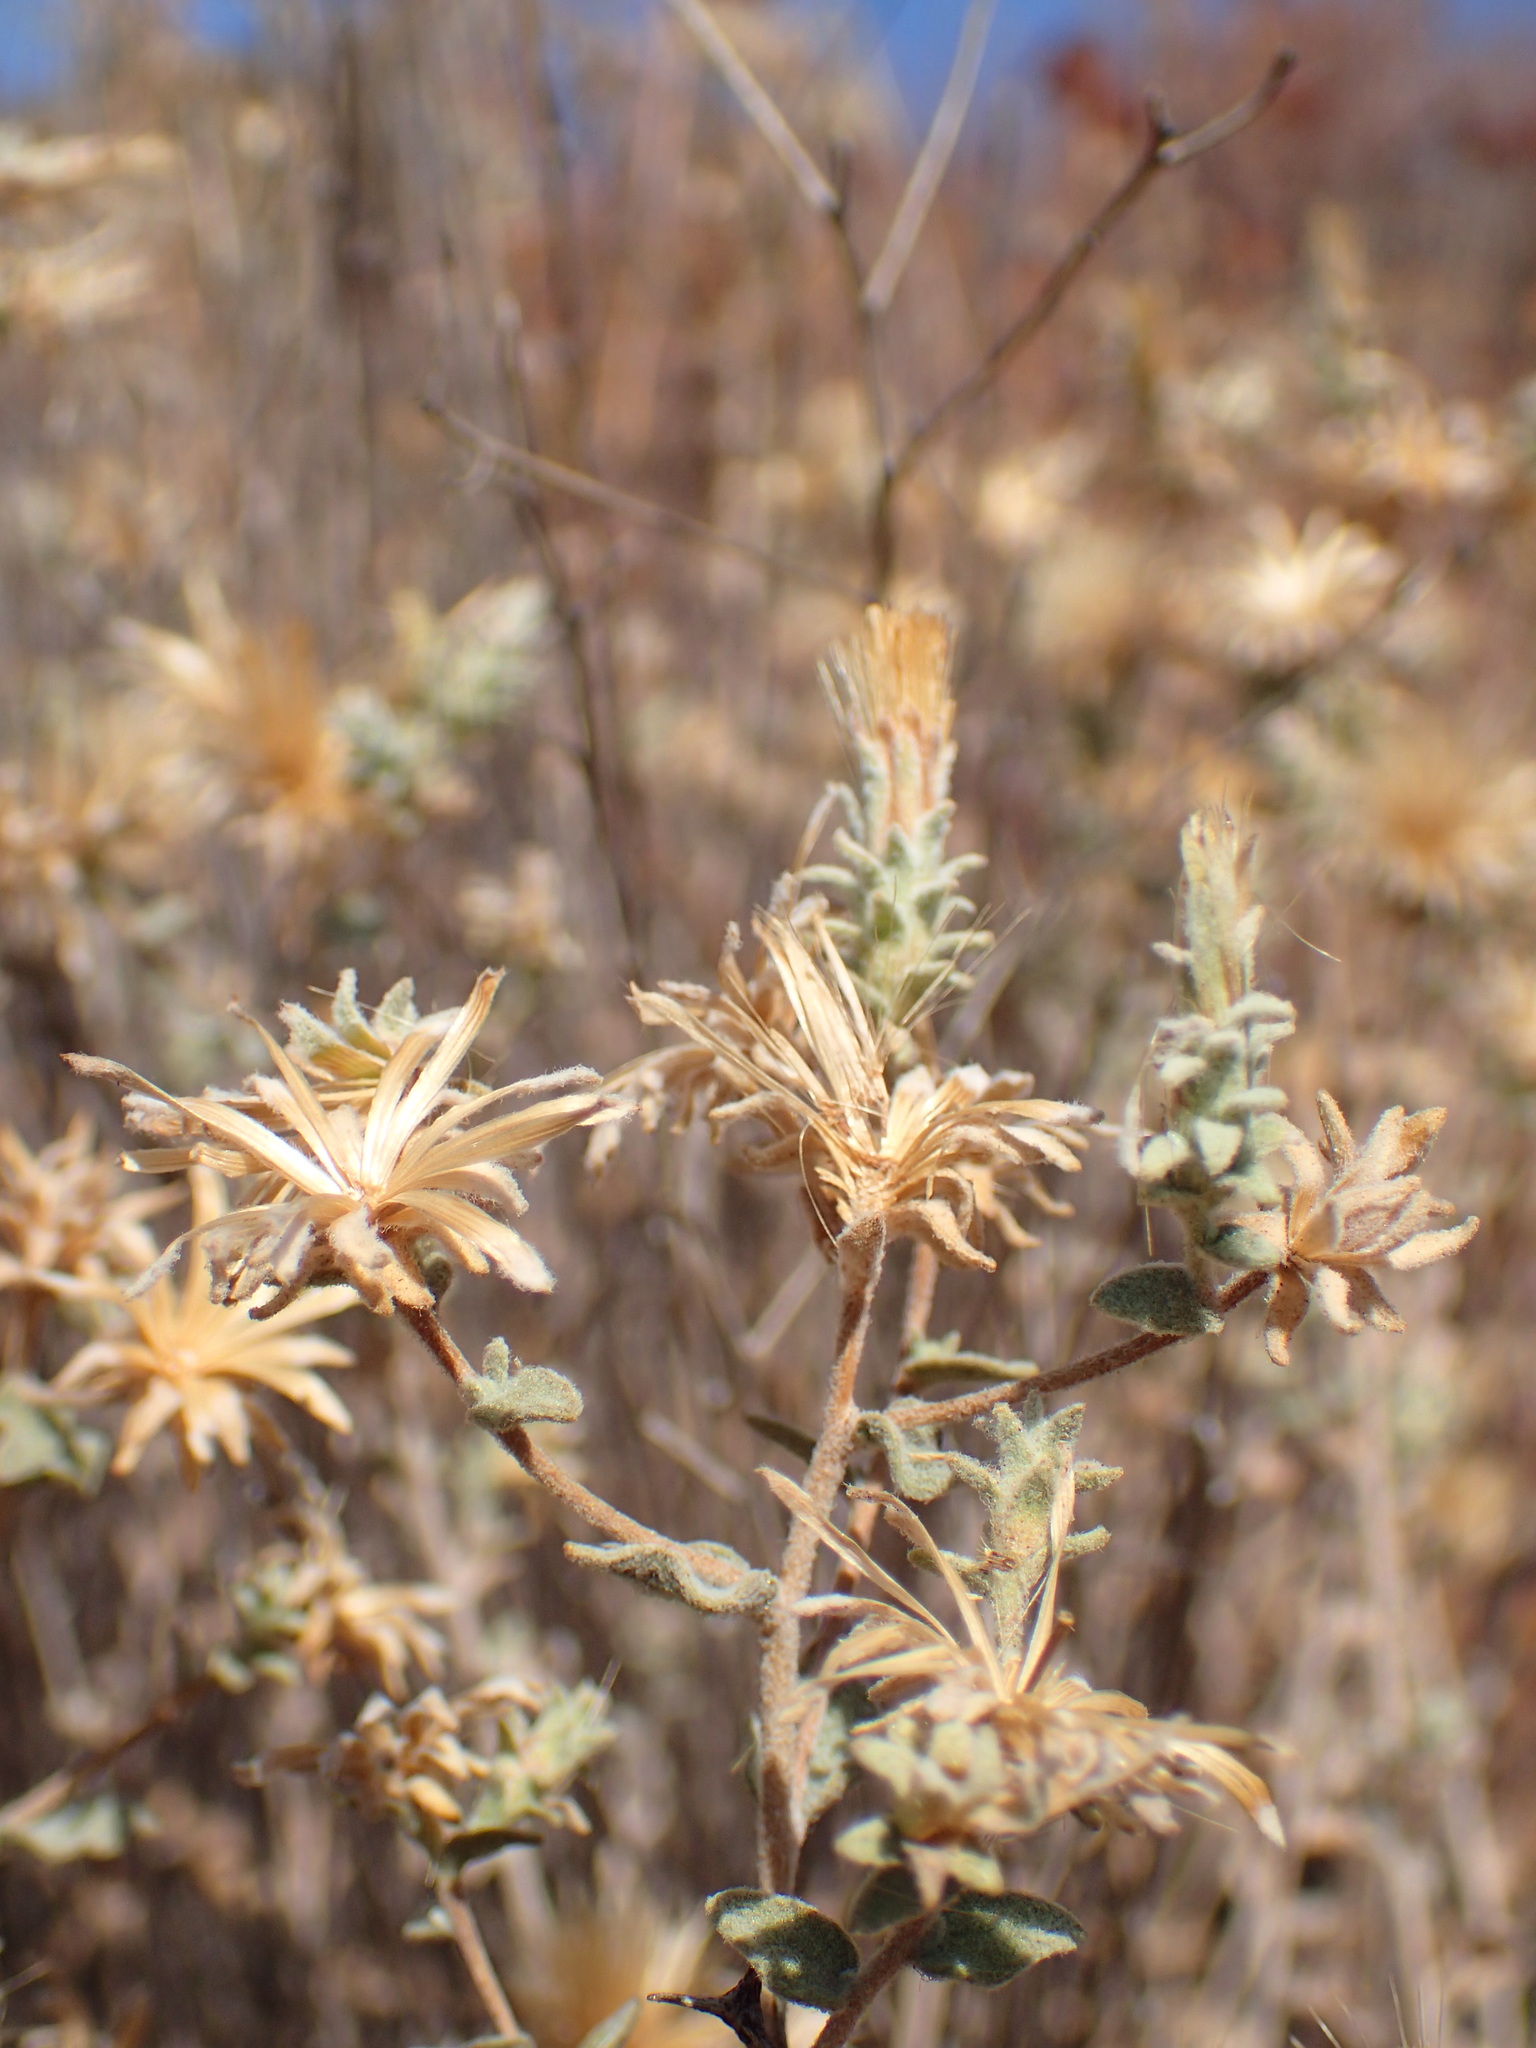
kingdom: Plantae
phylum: Tracheophyta
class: Magnoliopsida
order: Asterales
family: Asteraceae
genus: Brickellia
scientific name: Brickellia nevinii
